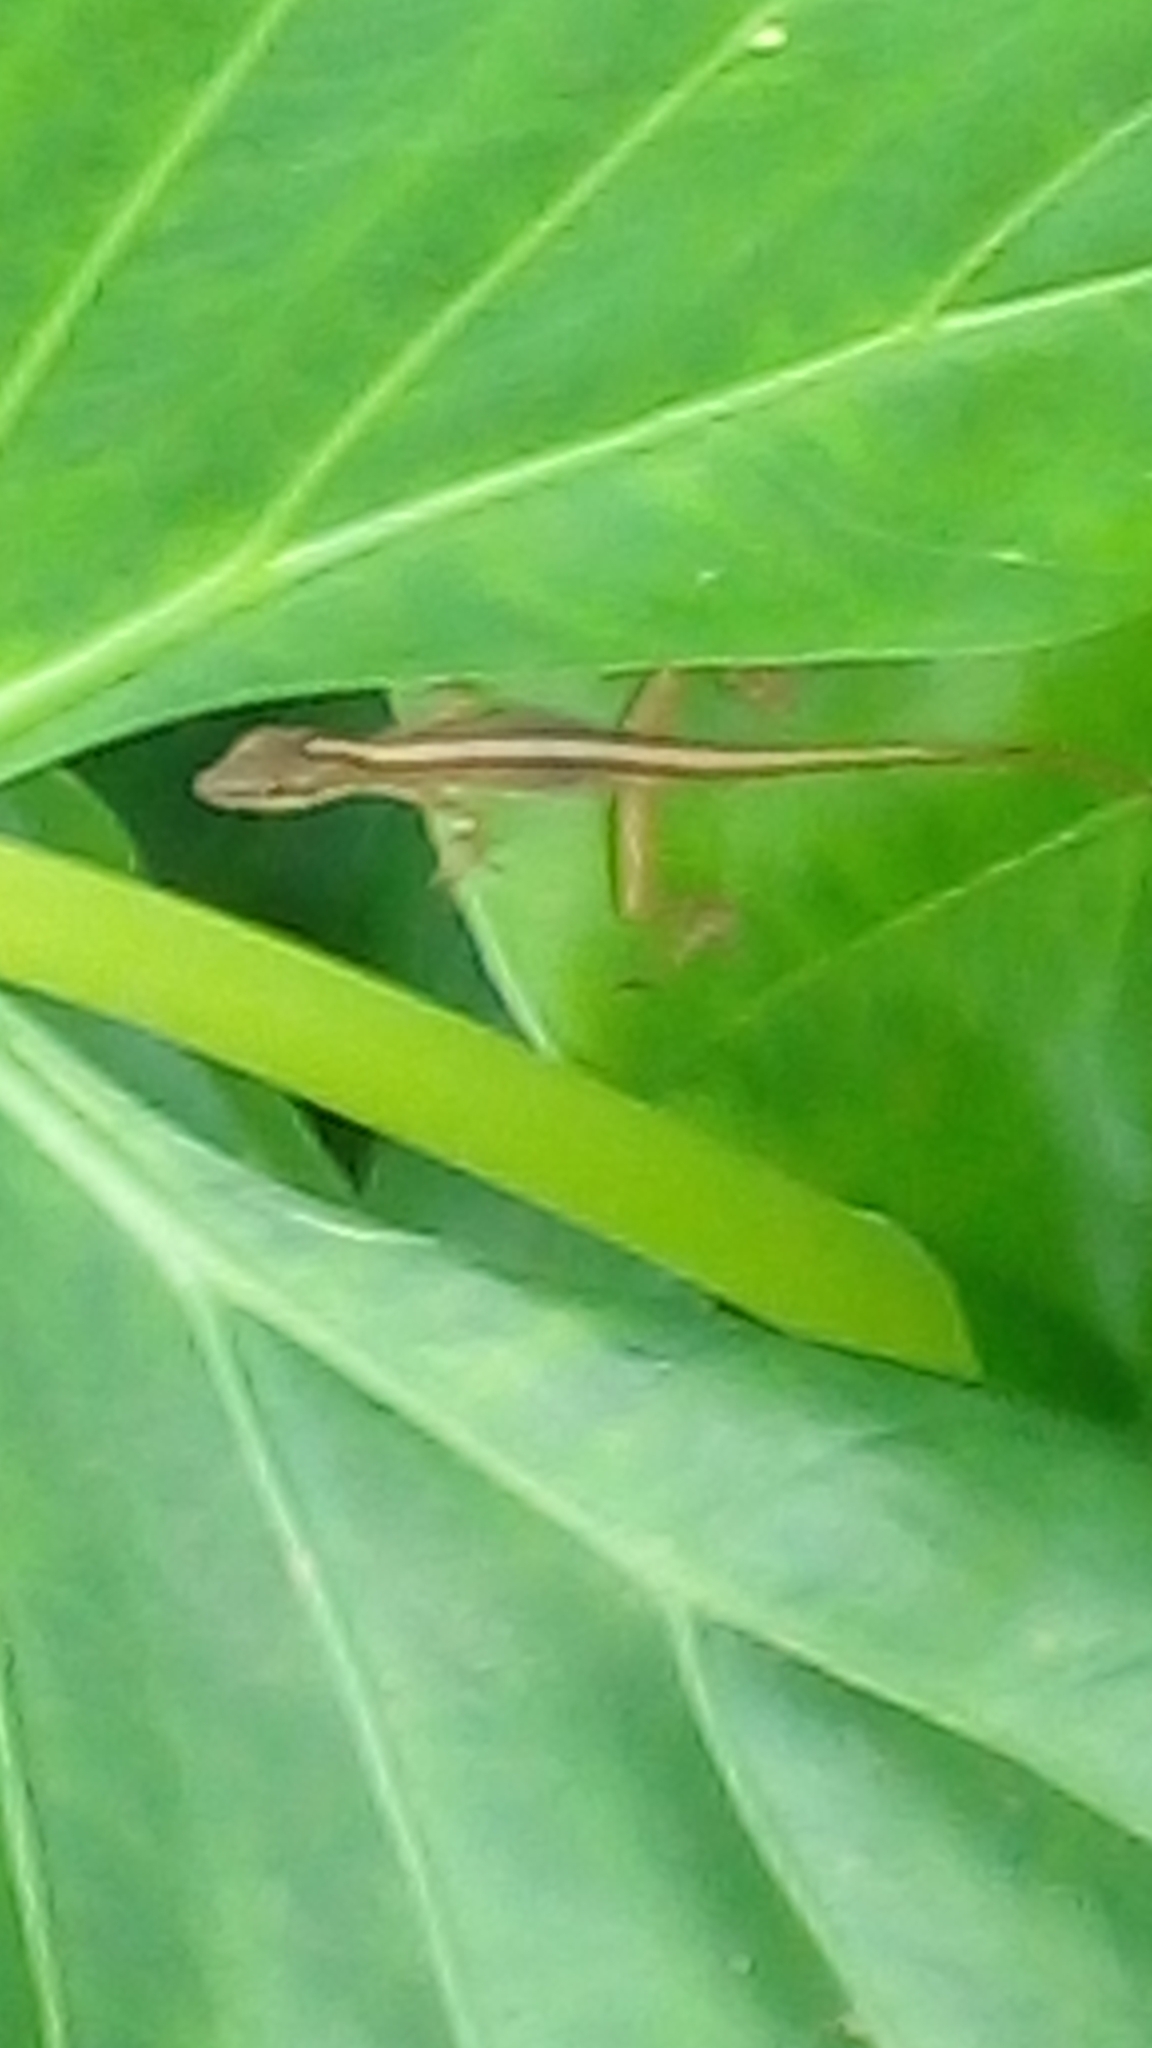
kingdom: Animalia
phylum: Chordata
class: Squamata
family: Dactyloidae
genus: Anolis
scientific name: Anolis limifrons
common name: Border anole
